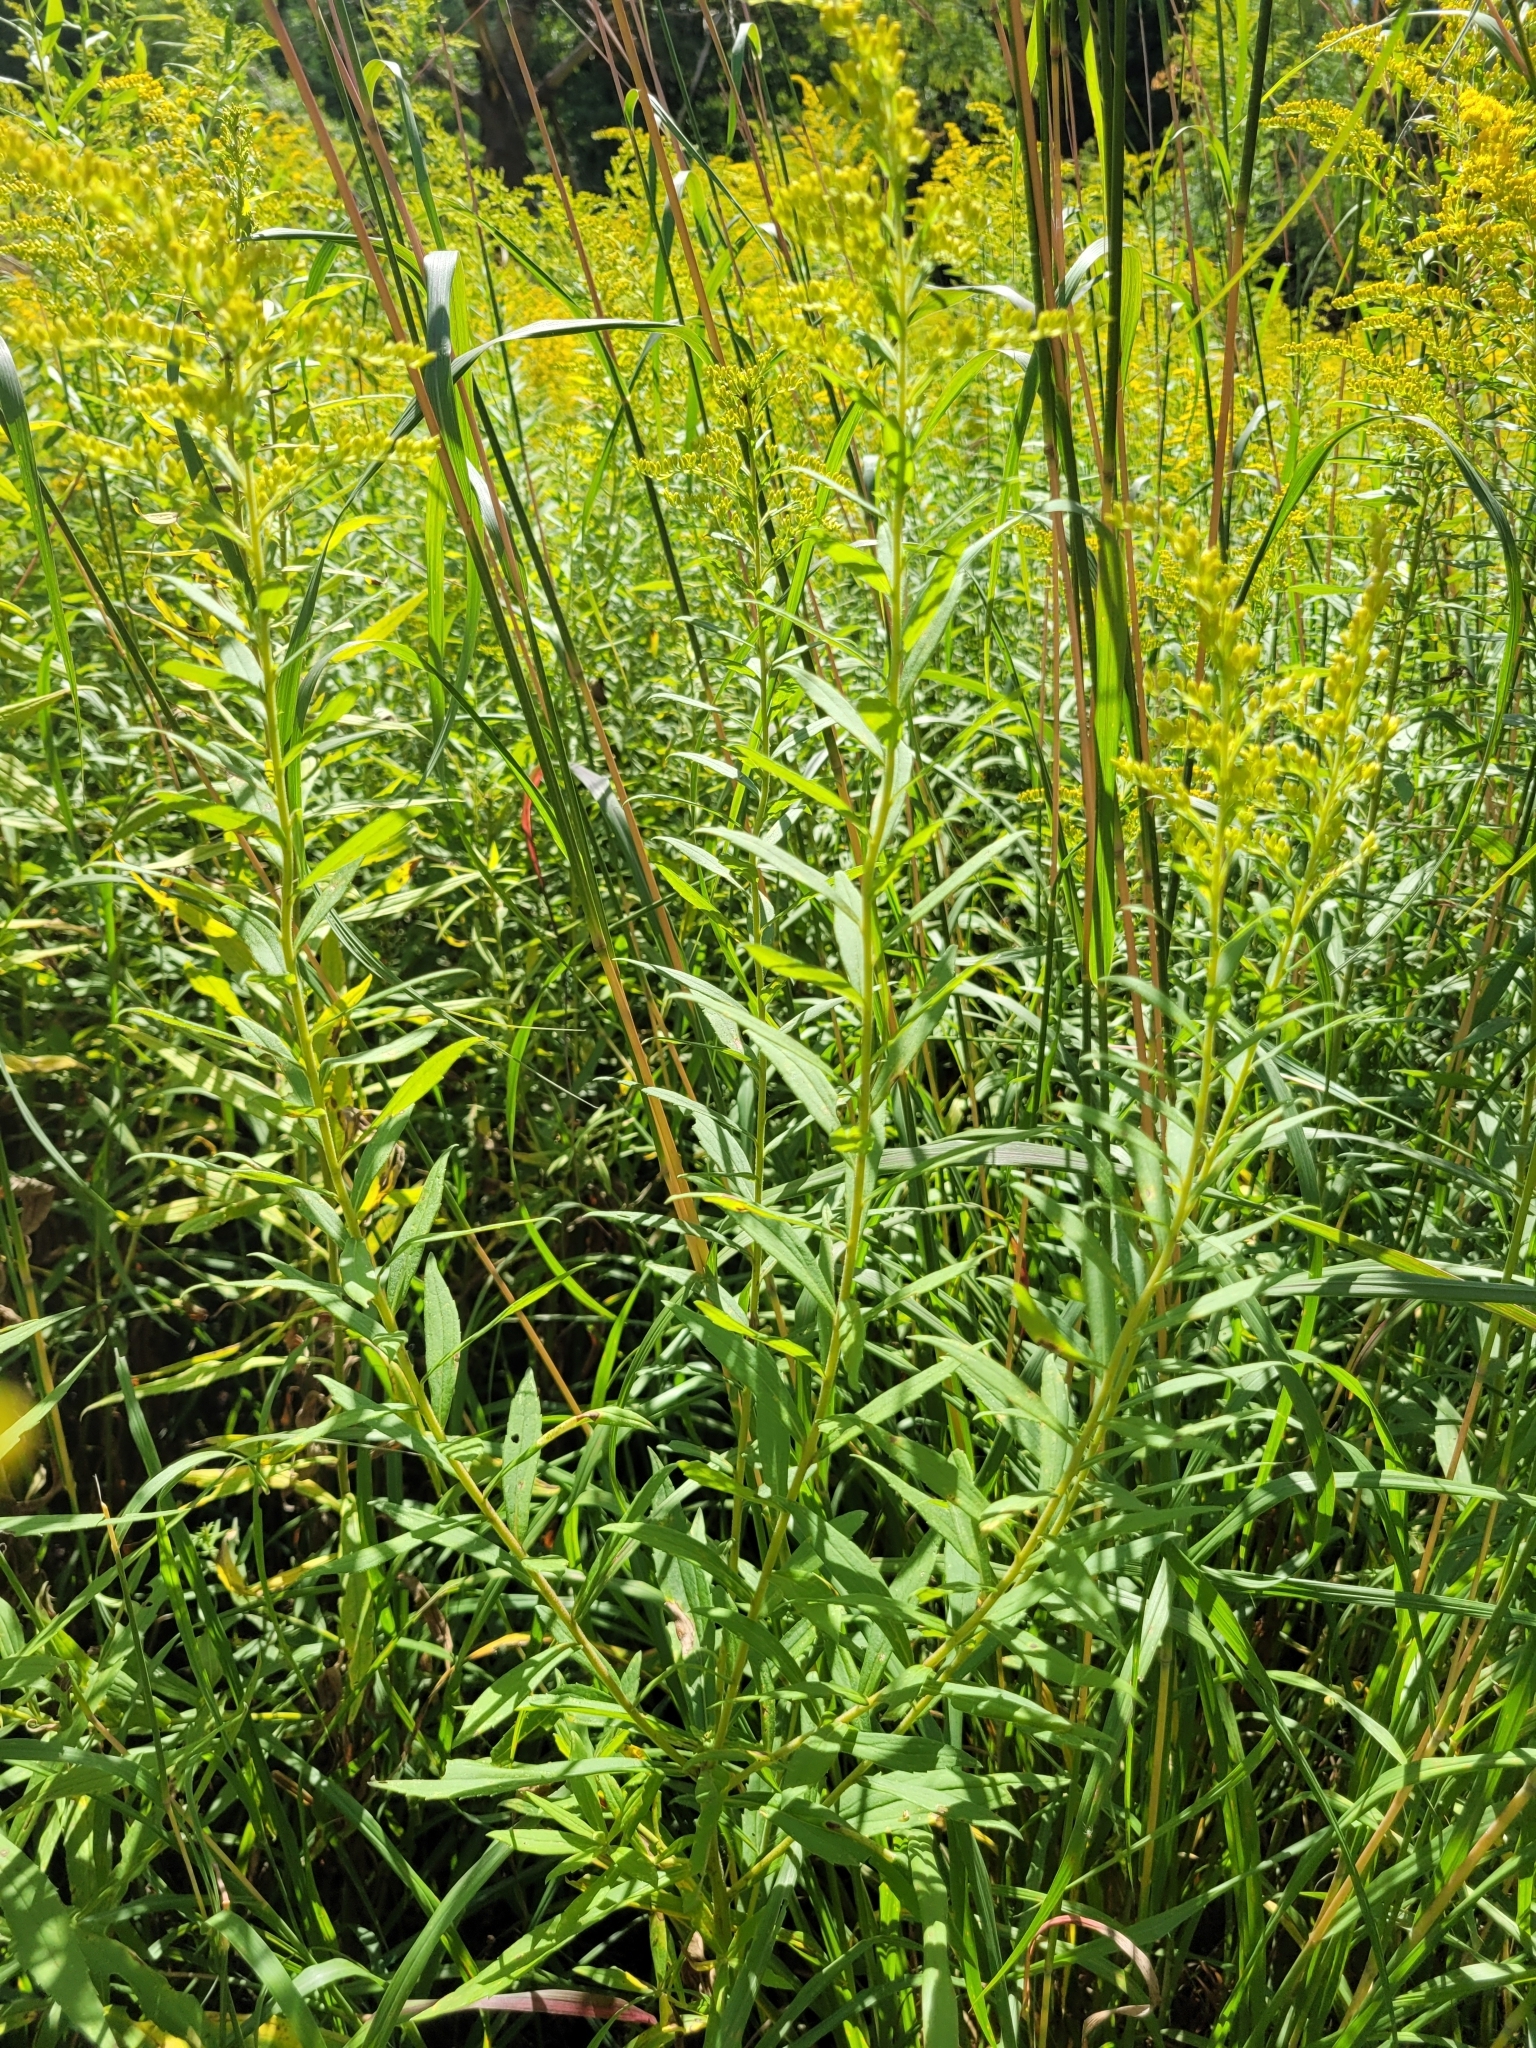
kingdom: Plantae
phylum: Tracheophyta
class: Magnoliopsida
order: Asterales
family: Asteraceae
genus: Solidago
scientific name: Solidago canadensis
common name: Canada goldenrod
